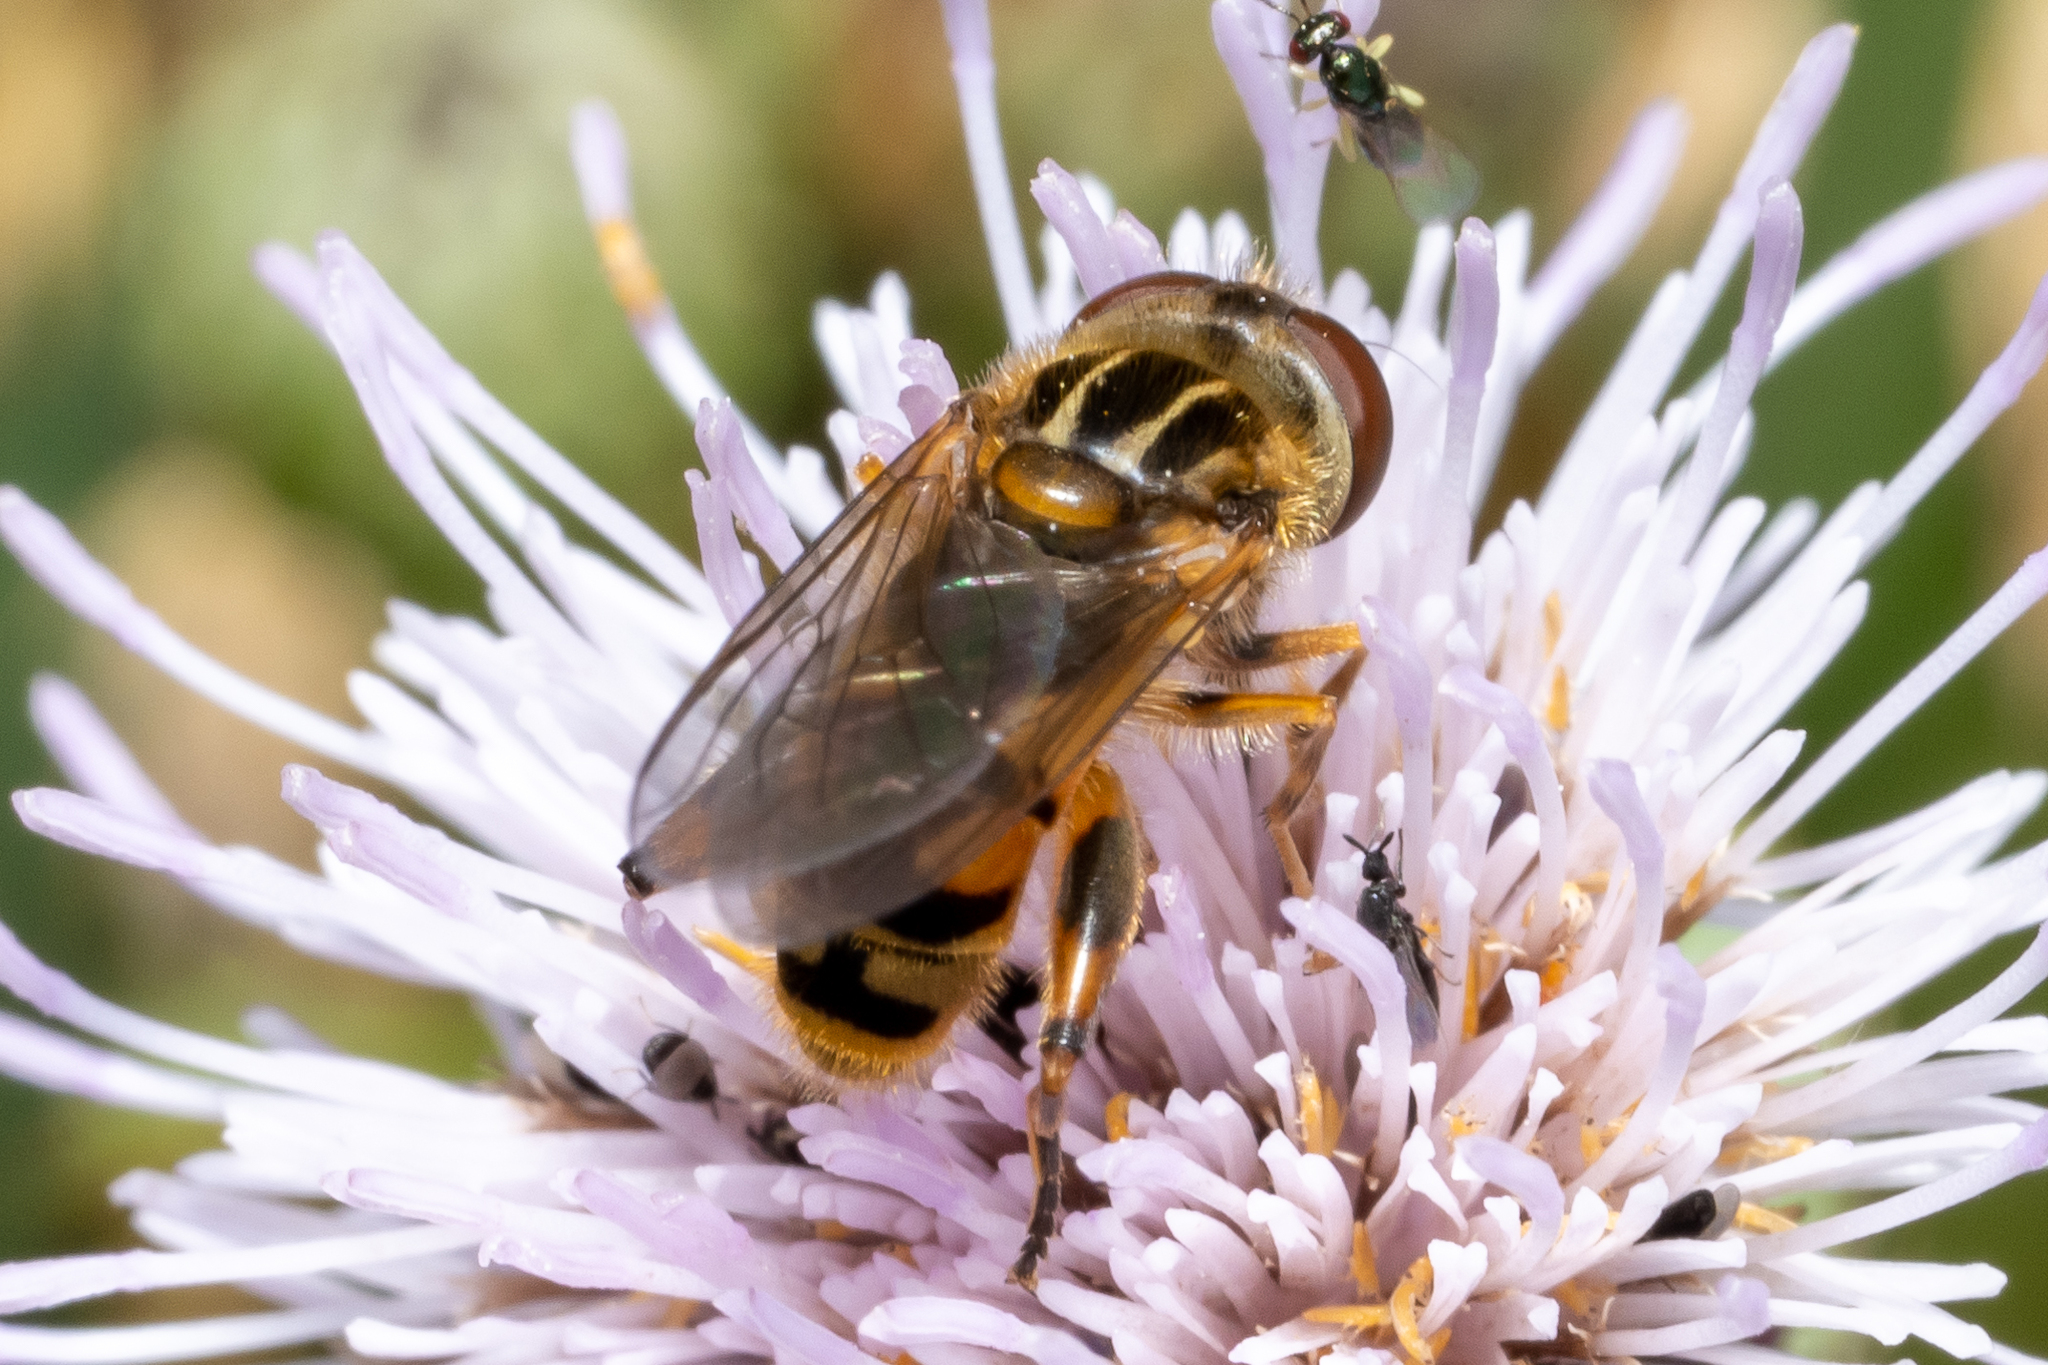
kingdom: Animalia
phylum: Arthropoda
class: Insecta
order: Diptera
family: Syrphidae
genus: Eurimyia
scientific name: Eurimyia stipatus
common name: Long-nosed swamp fly
